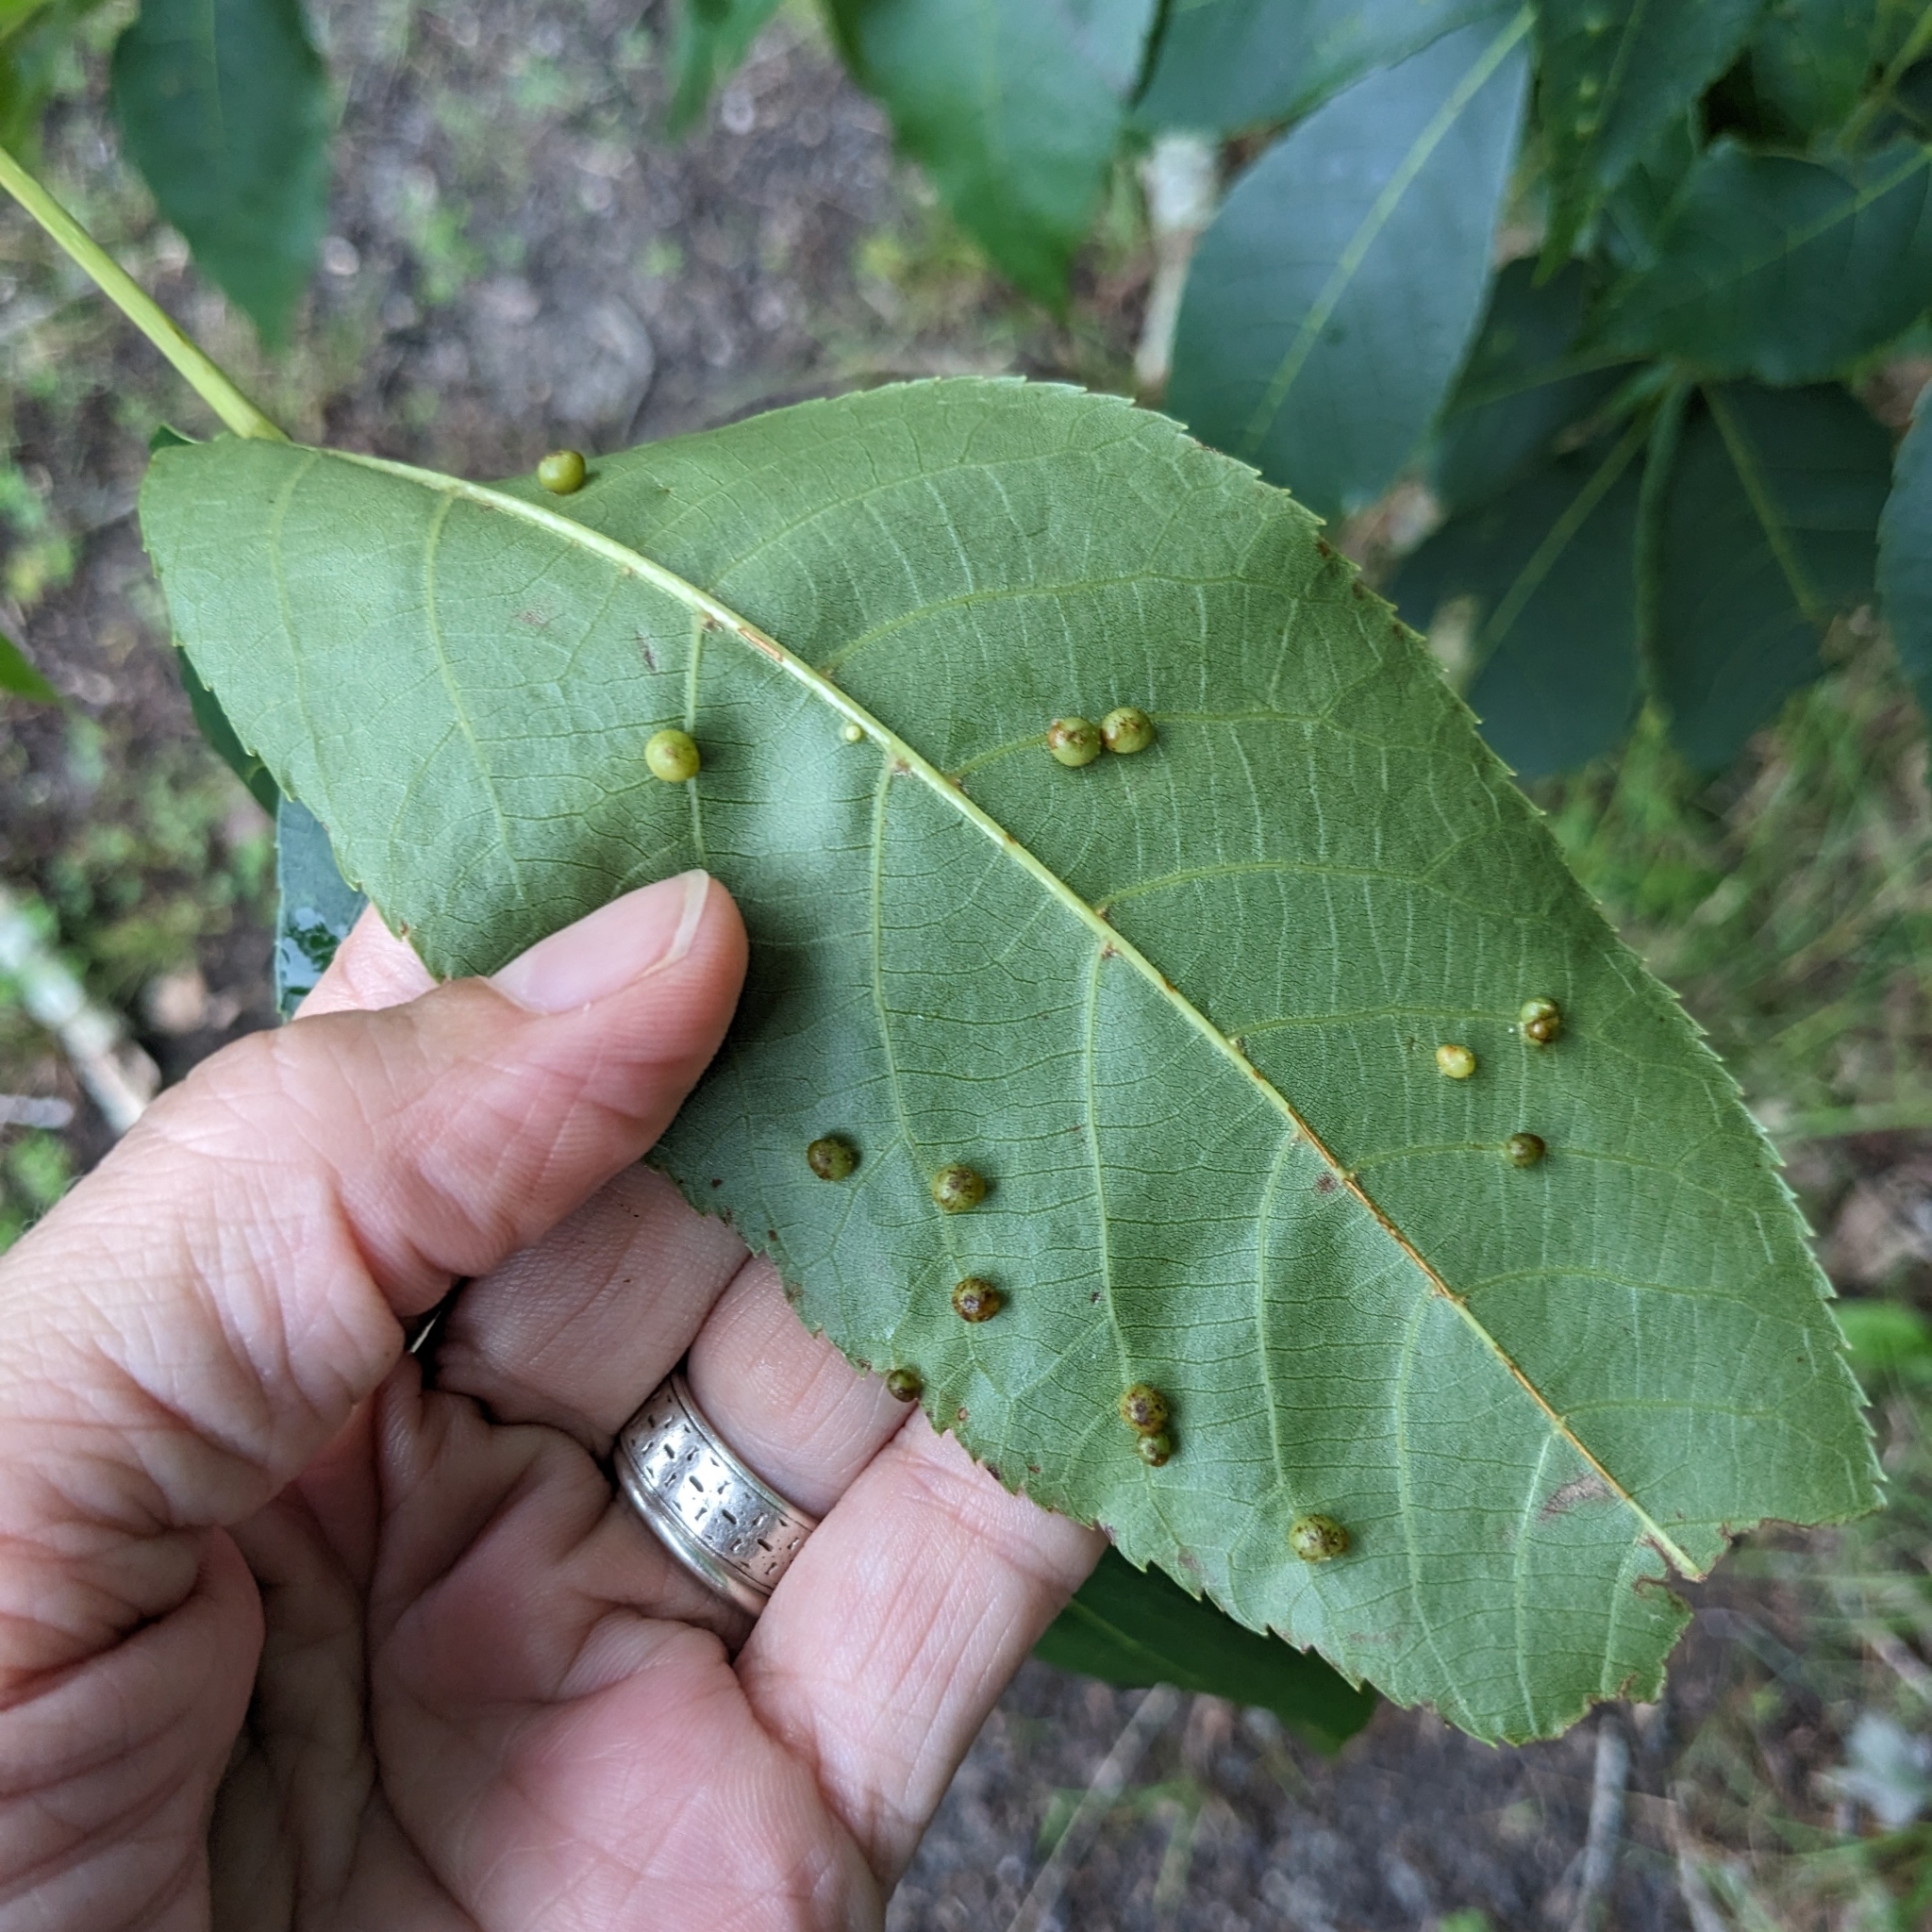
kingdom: Animalia
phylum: Arthropoda
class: Insecta
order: Diptera
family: Cecidomyiidae
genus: Caryomyia
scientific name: Caryomyia caryae
